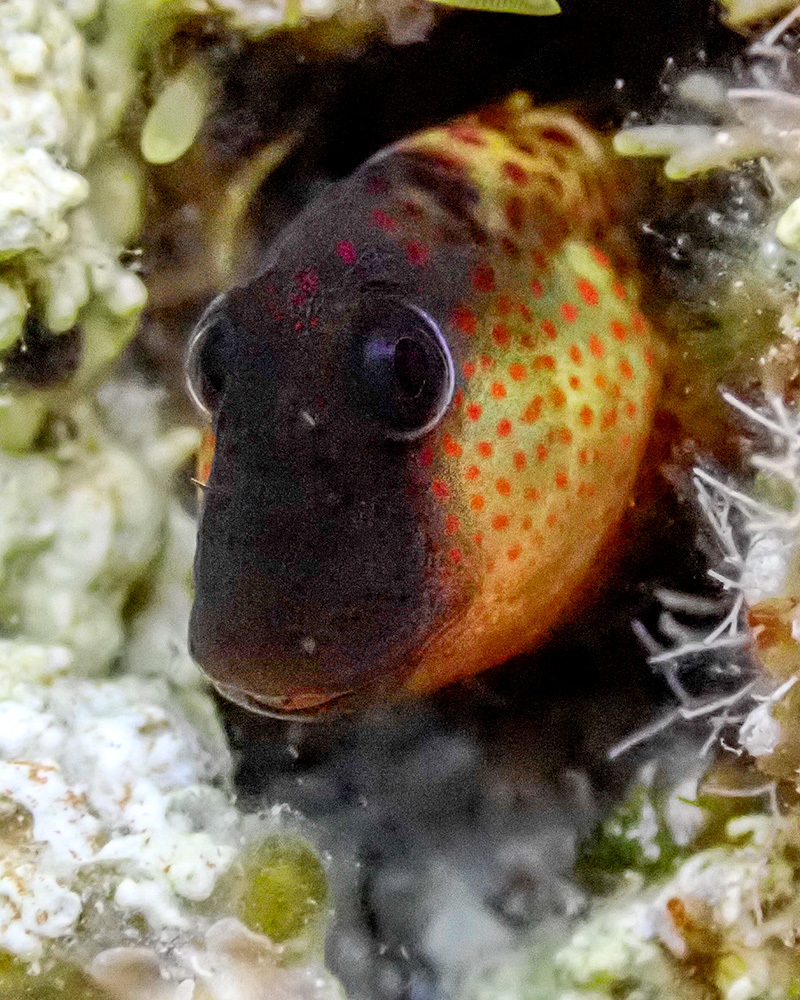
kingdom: Animalia
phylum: Chordata
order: Perciformes
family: Blenniidae
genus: Microlipophrys
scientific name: Microlipophrys canevae
